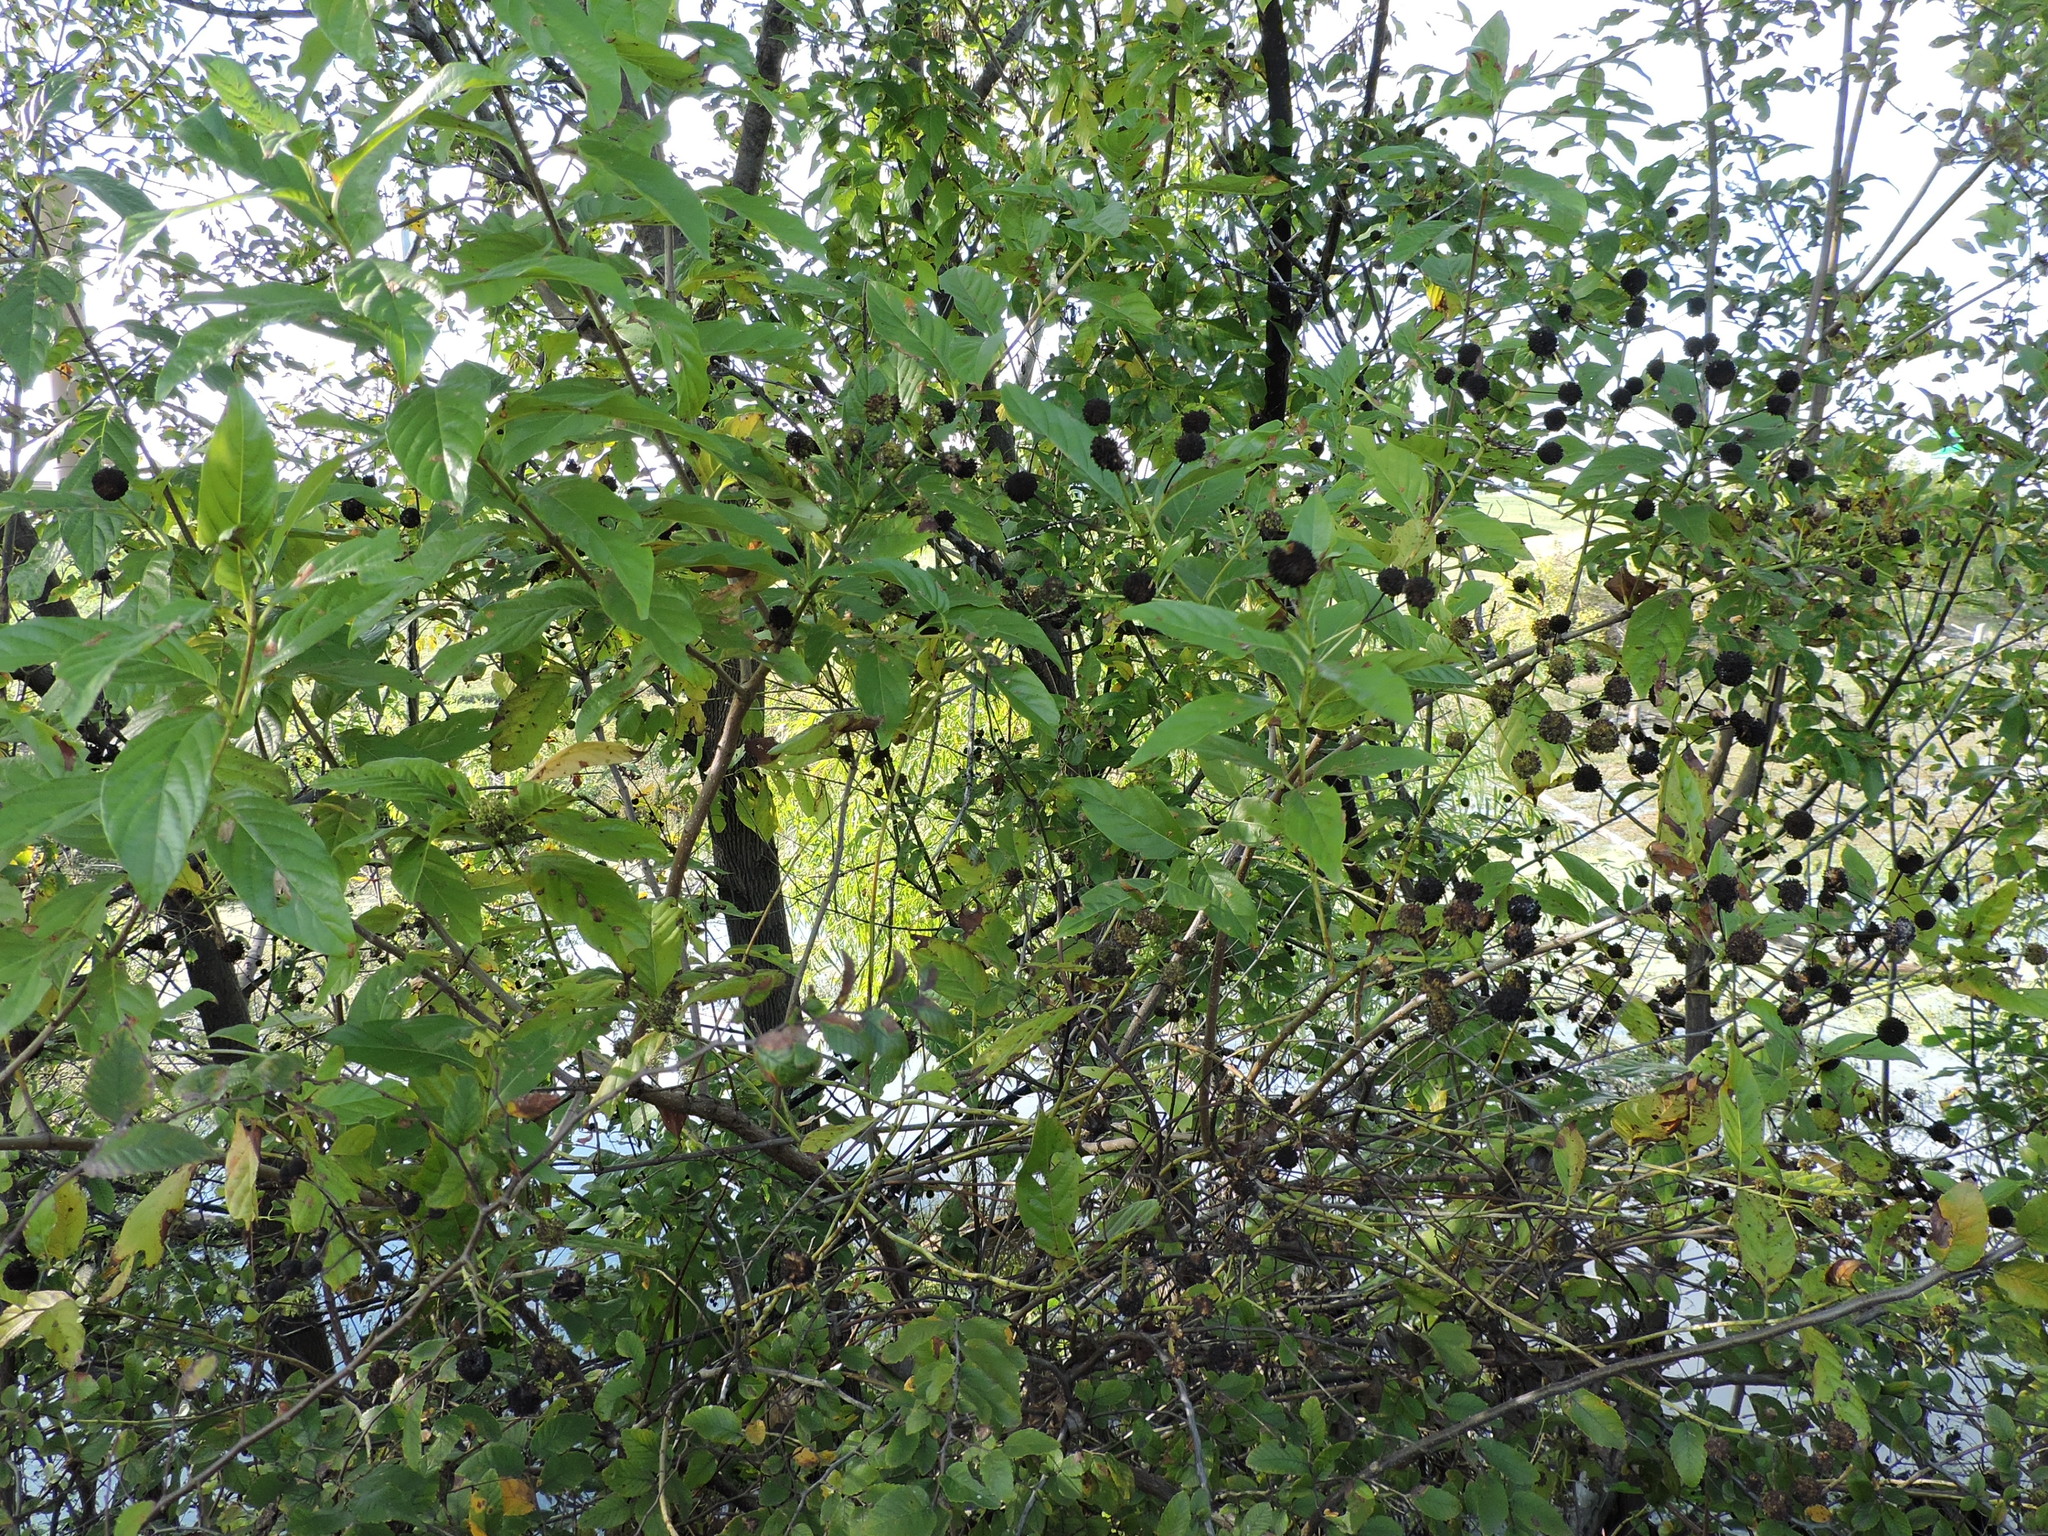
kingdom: Plantae
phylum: Tracheophyta
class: Magnoliopsida
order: Gentianales
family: Rubiaceae
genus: Cephalanthus
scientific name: Cephalanthus occidentalis
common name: Button-willow
